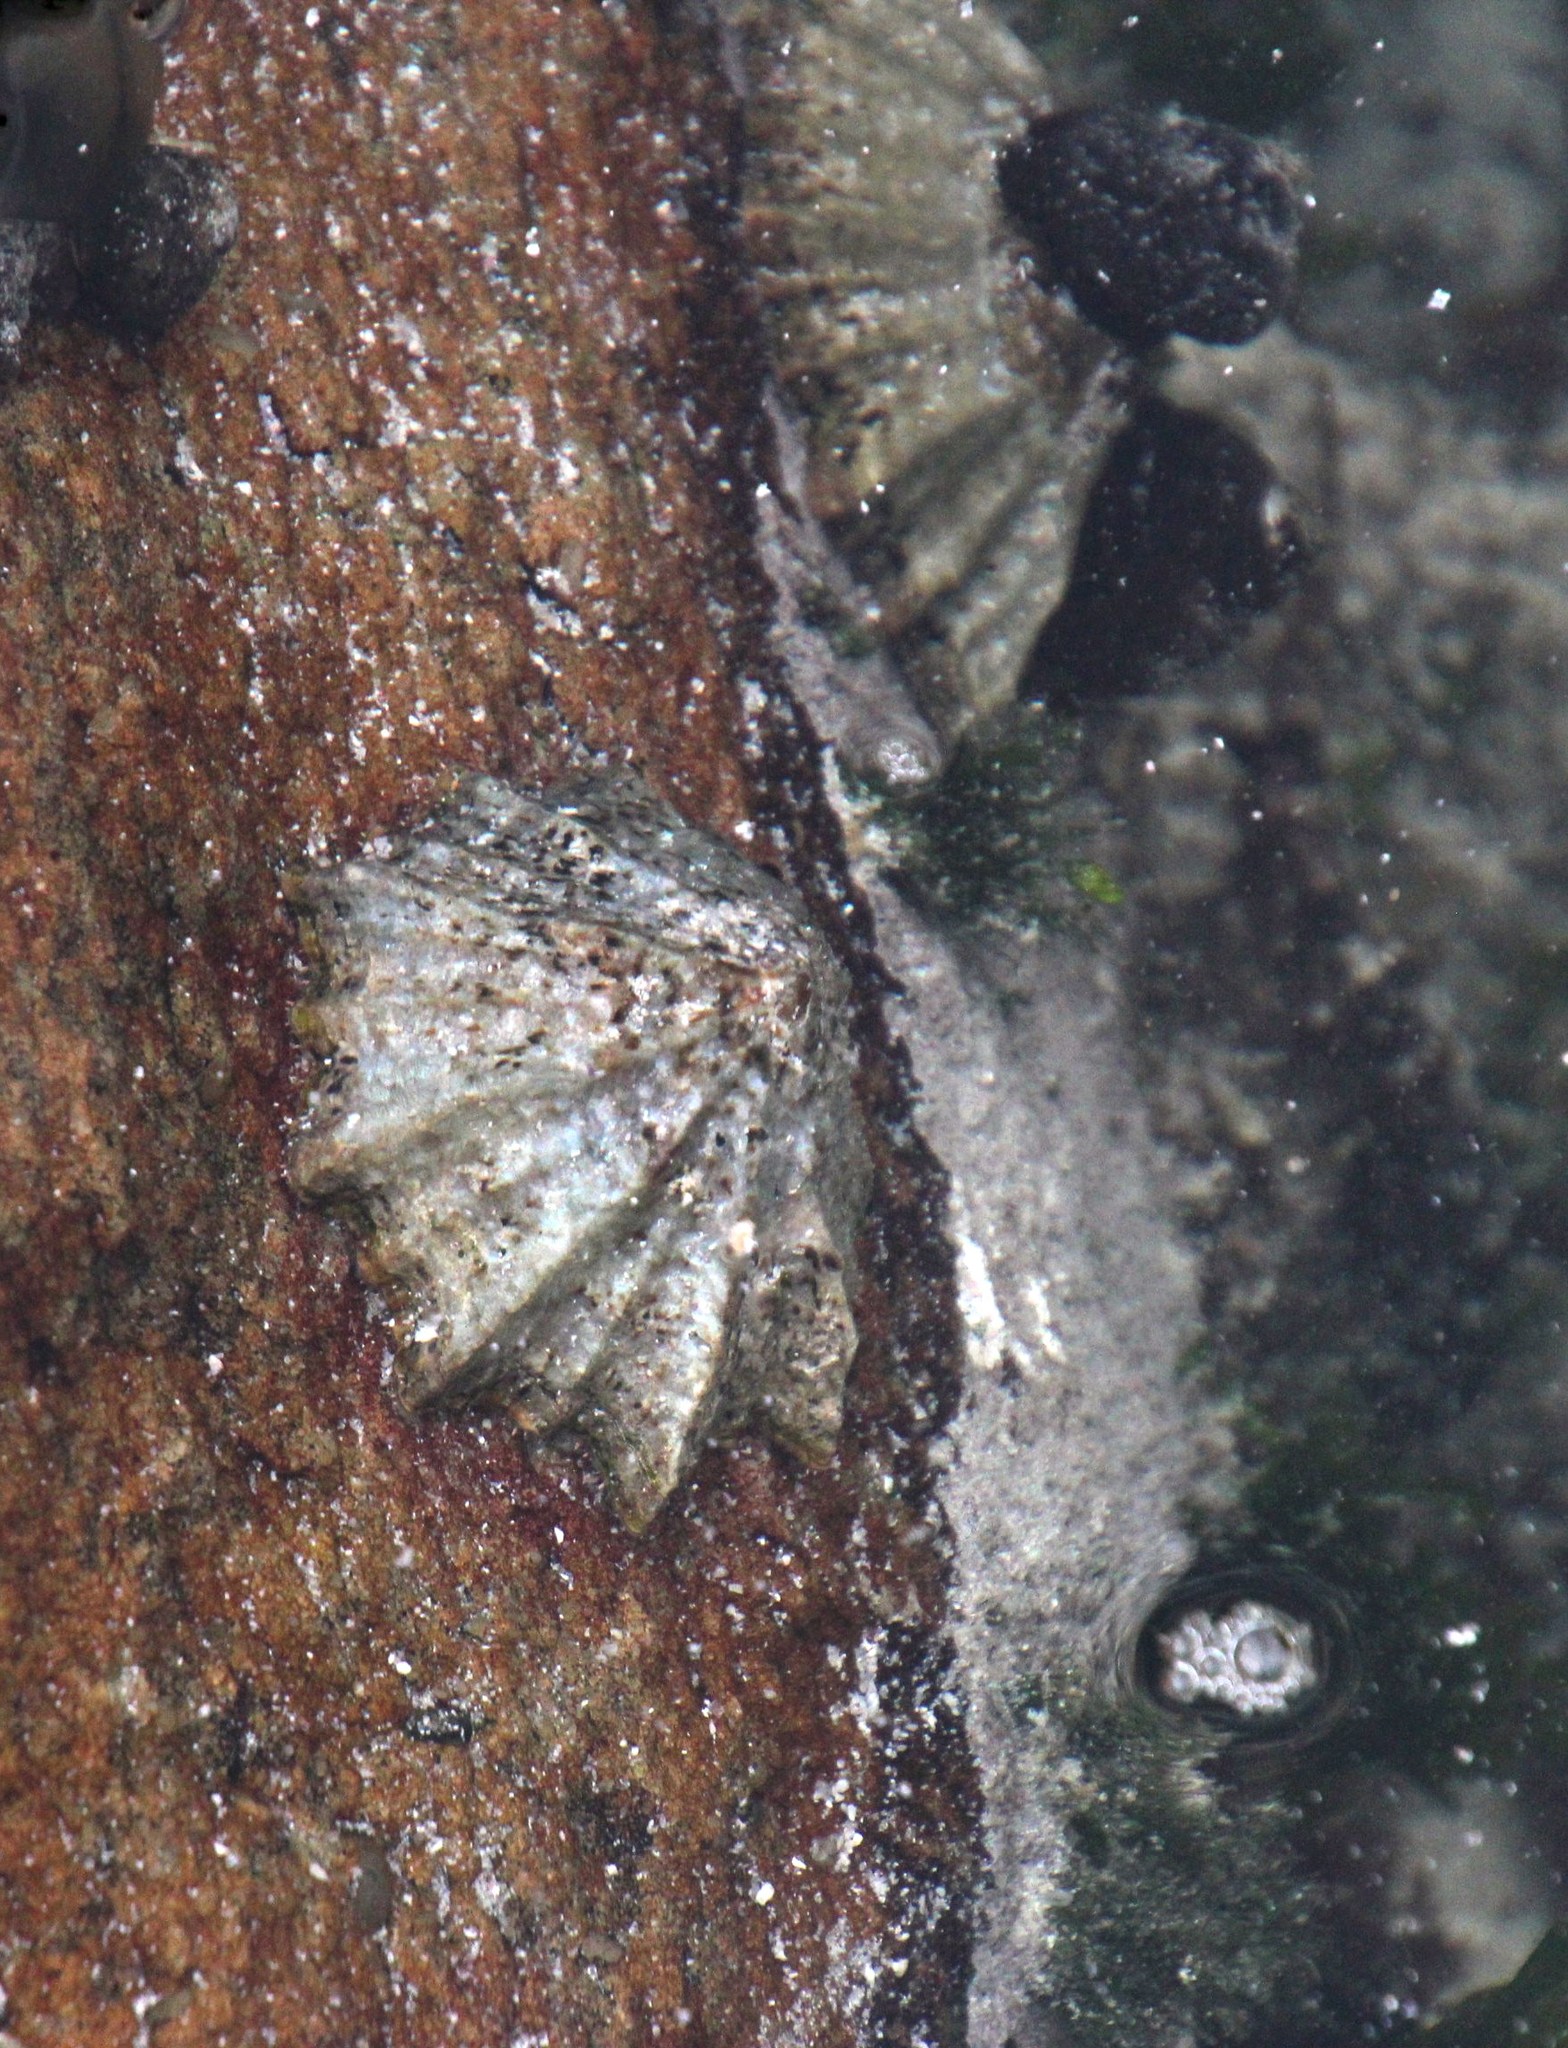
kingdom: Animalia
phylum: Mollusca
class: Gastropoda
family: Patellidae
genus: Scutellastra
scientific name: Scutellastra tabularis
